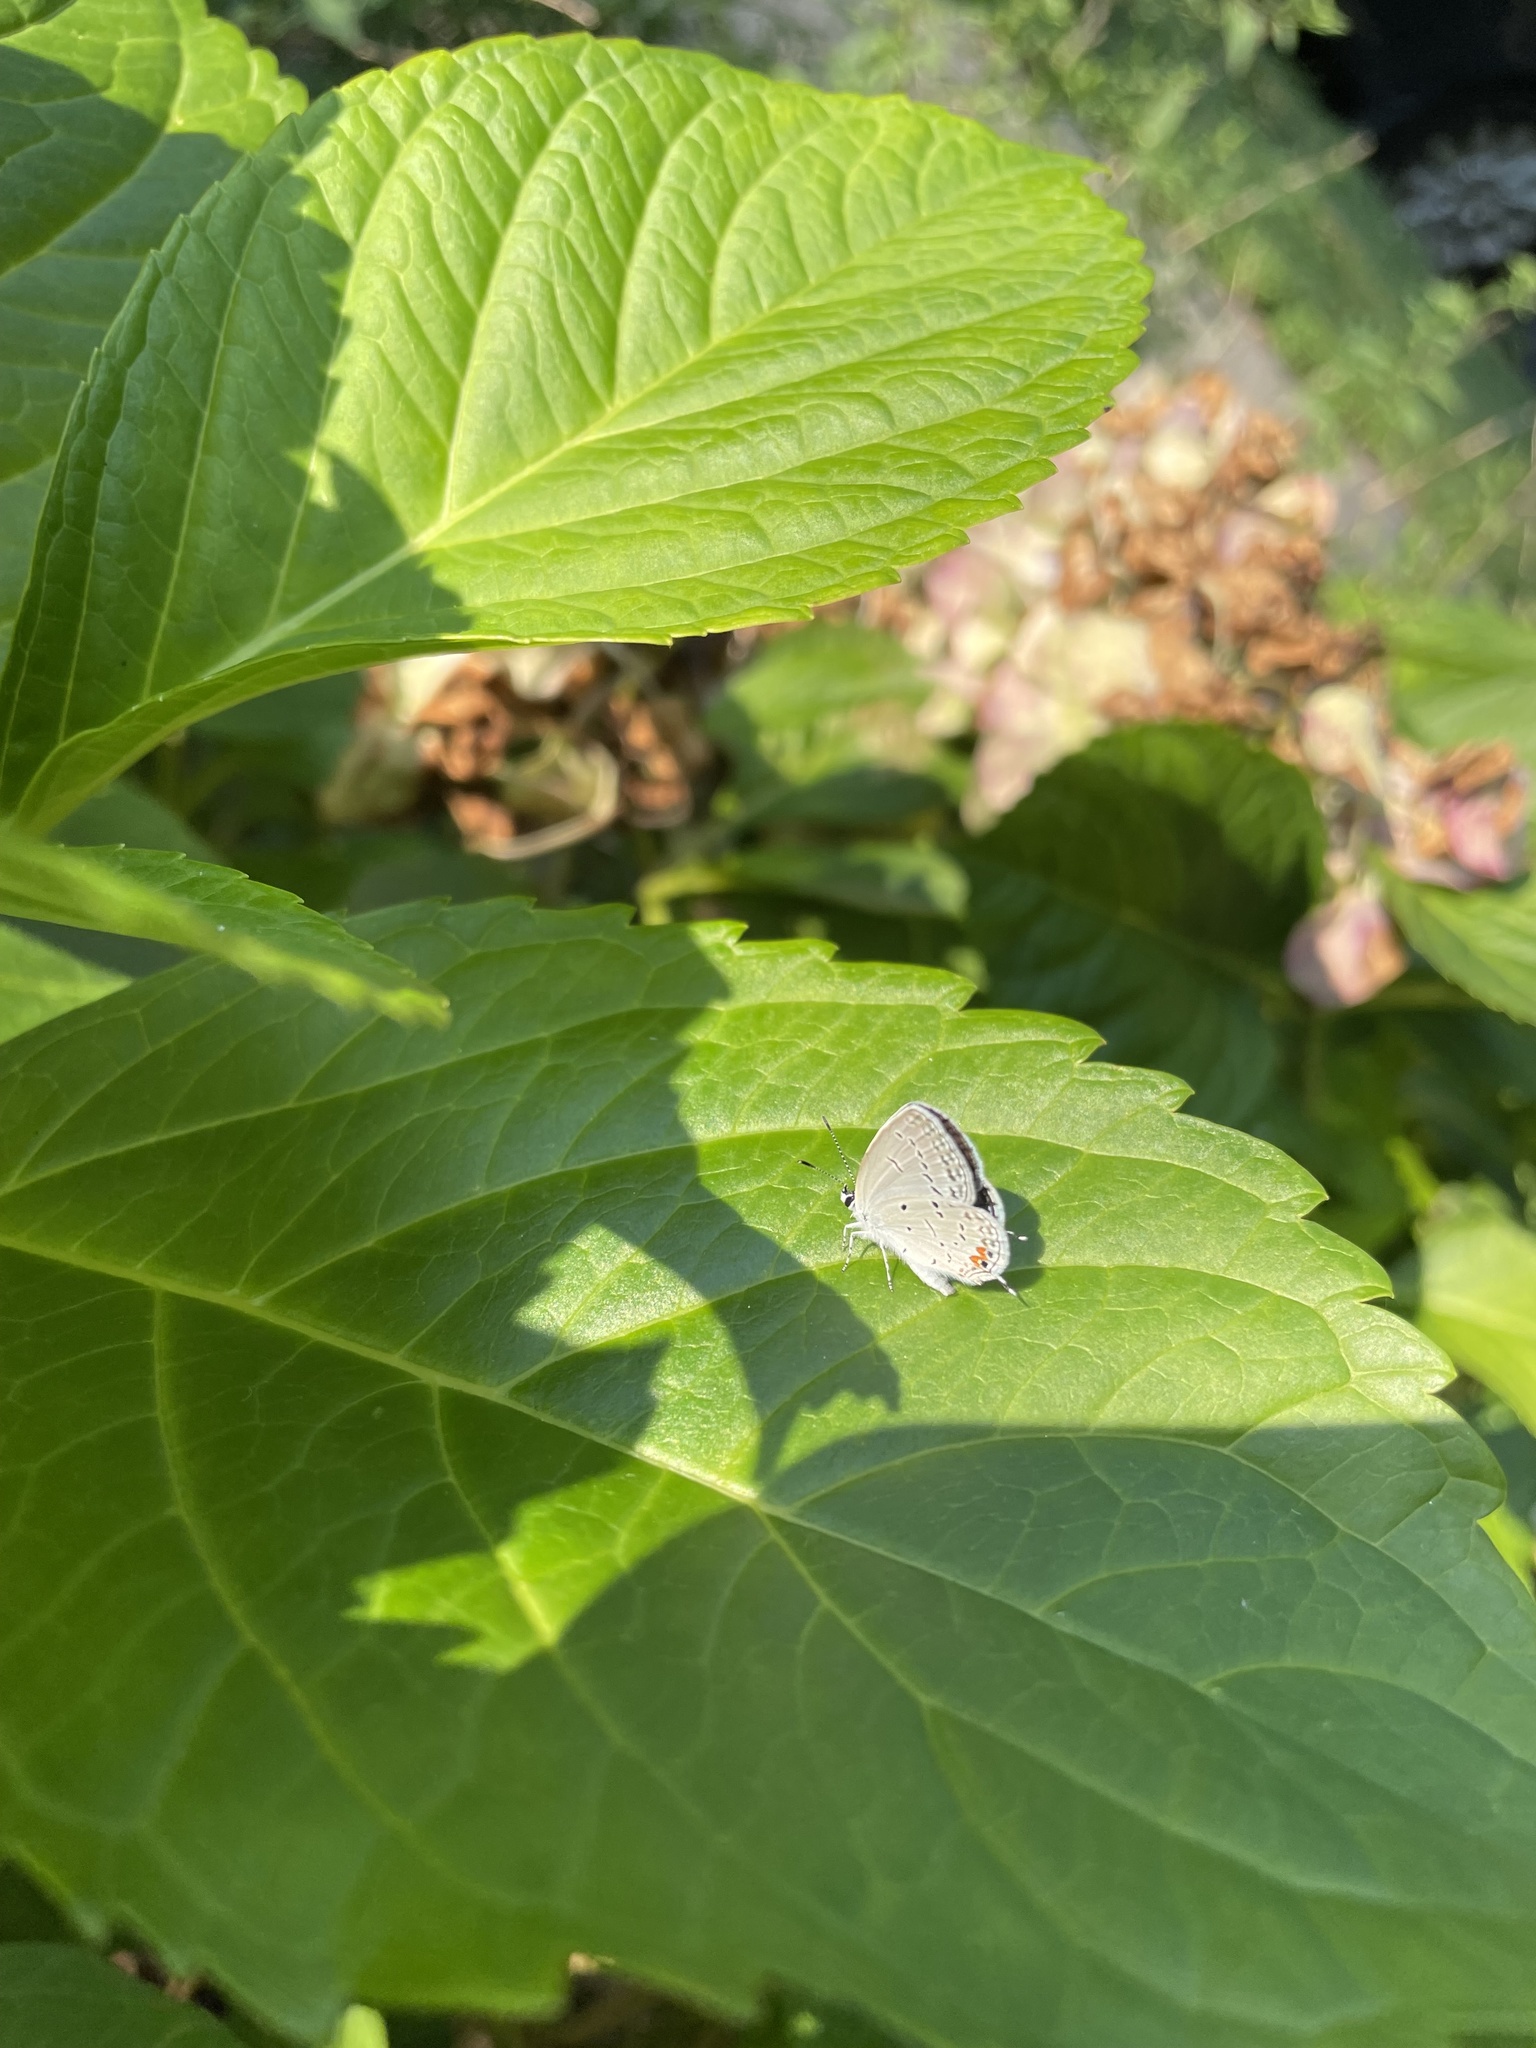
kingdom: Animalia
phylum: Arthropoda
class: Insecta
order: Lepidoptera
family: Lycaenidae
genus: Elkalyce
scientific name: Elkalyce comyntas
